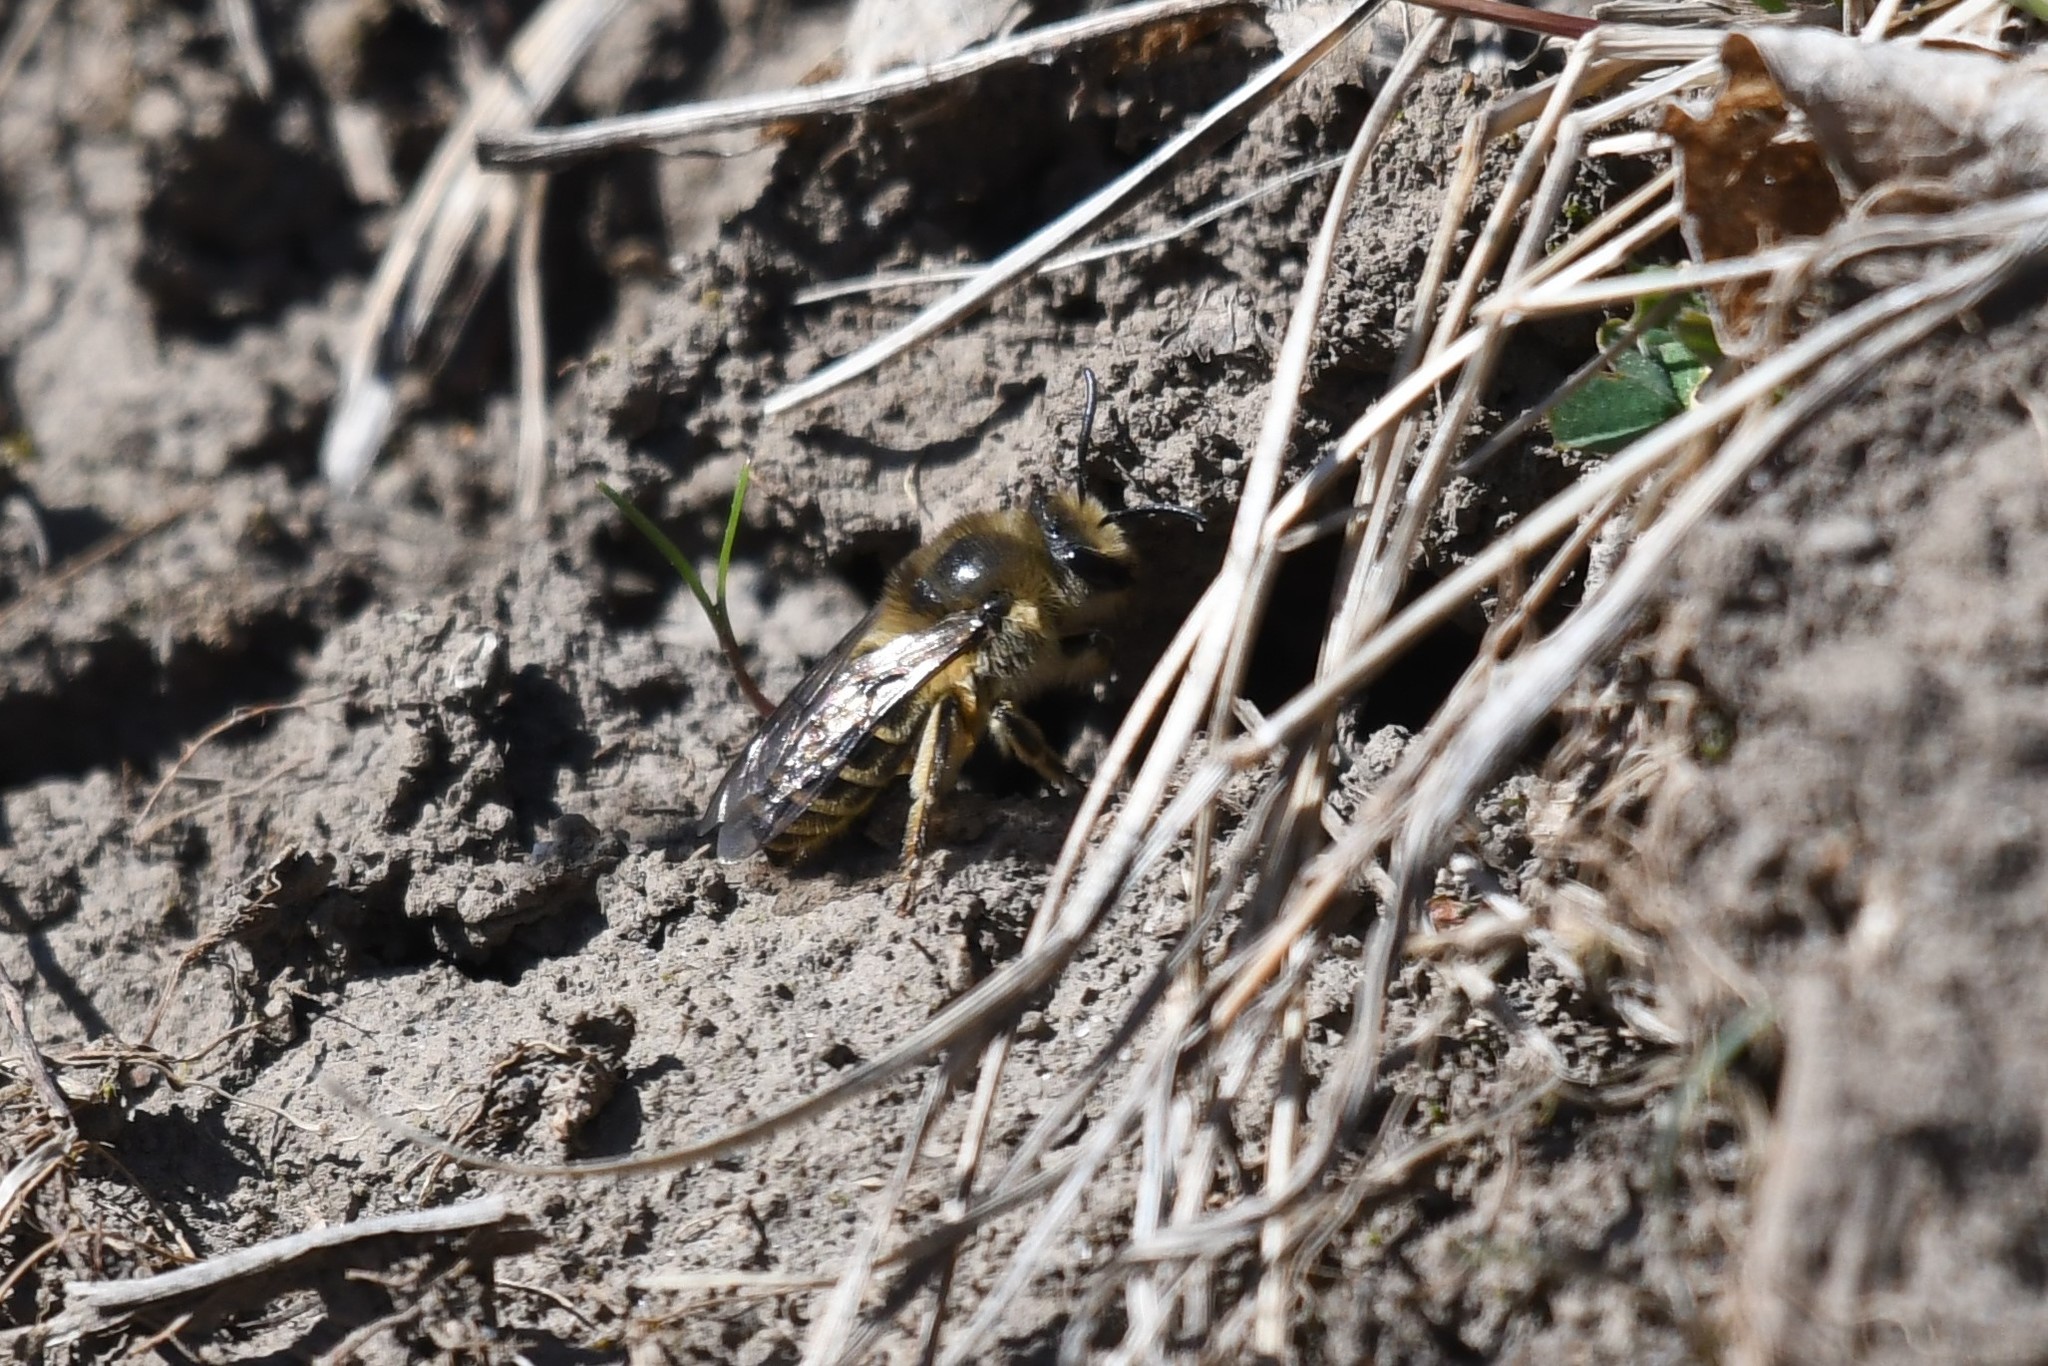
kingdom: Animalia
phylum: Arthropoda
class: Insecta
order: Hymenoptera
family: Colletidae
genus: Colletes
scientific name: Colletes inaequalis
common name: Unequal cellophane bee
